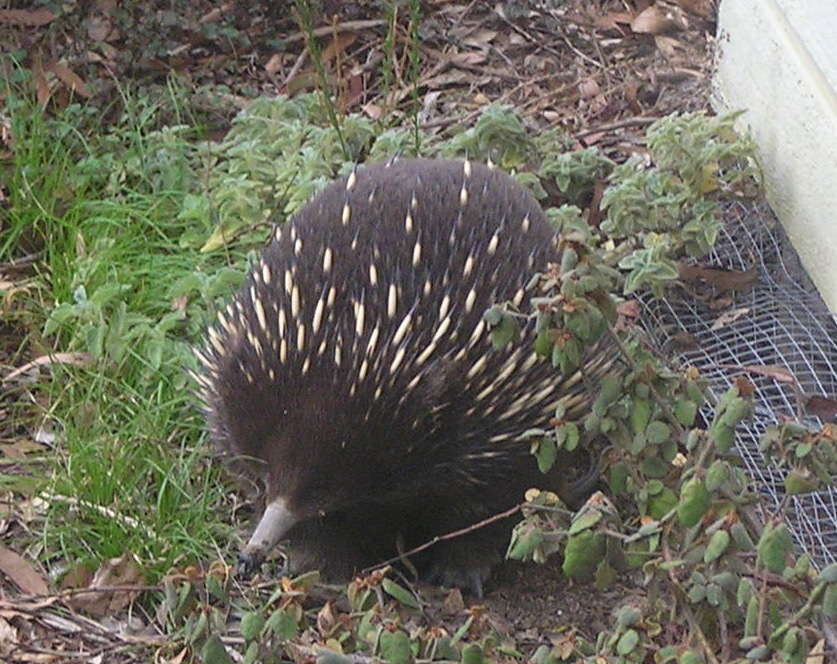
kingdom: Animalia
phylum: Chordata
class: Mammalia
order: Monotremata
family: Tachyglossidae
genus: Tachyglossus
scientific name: Tachyglossus aculeatus
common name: Short-beaked echidna
